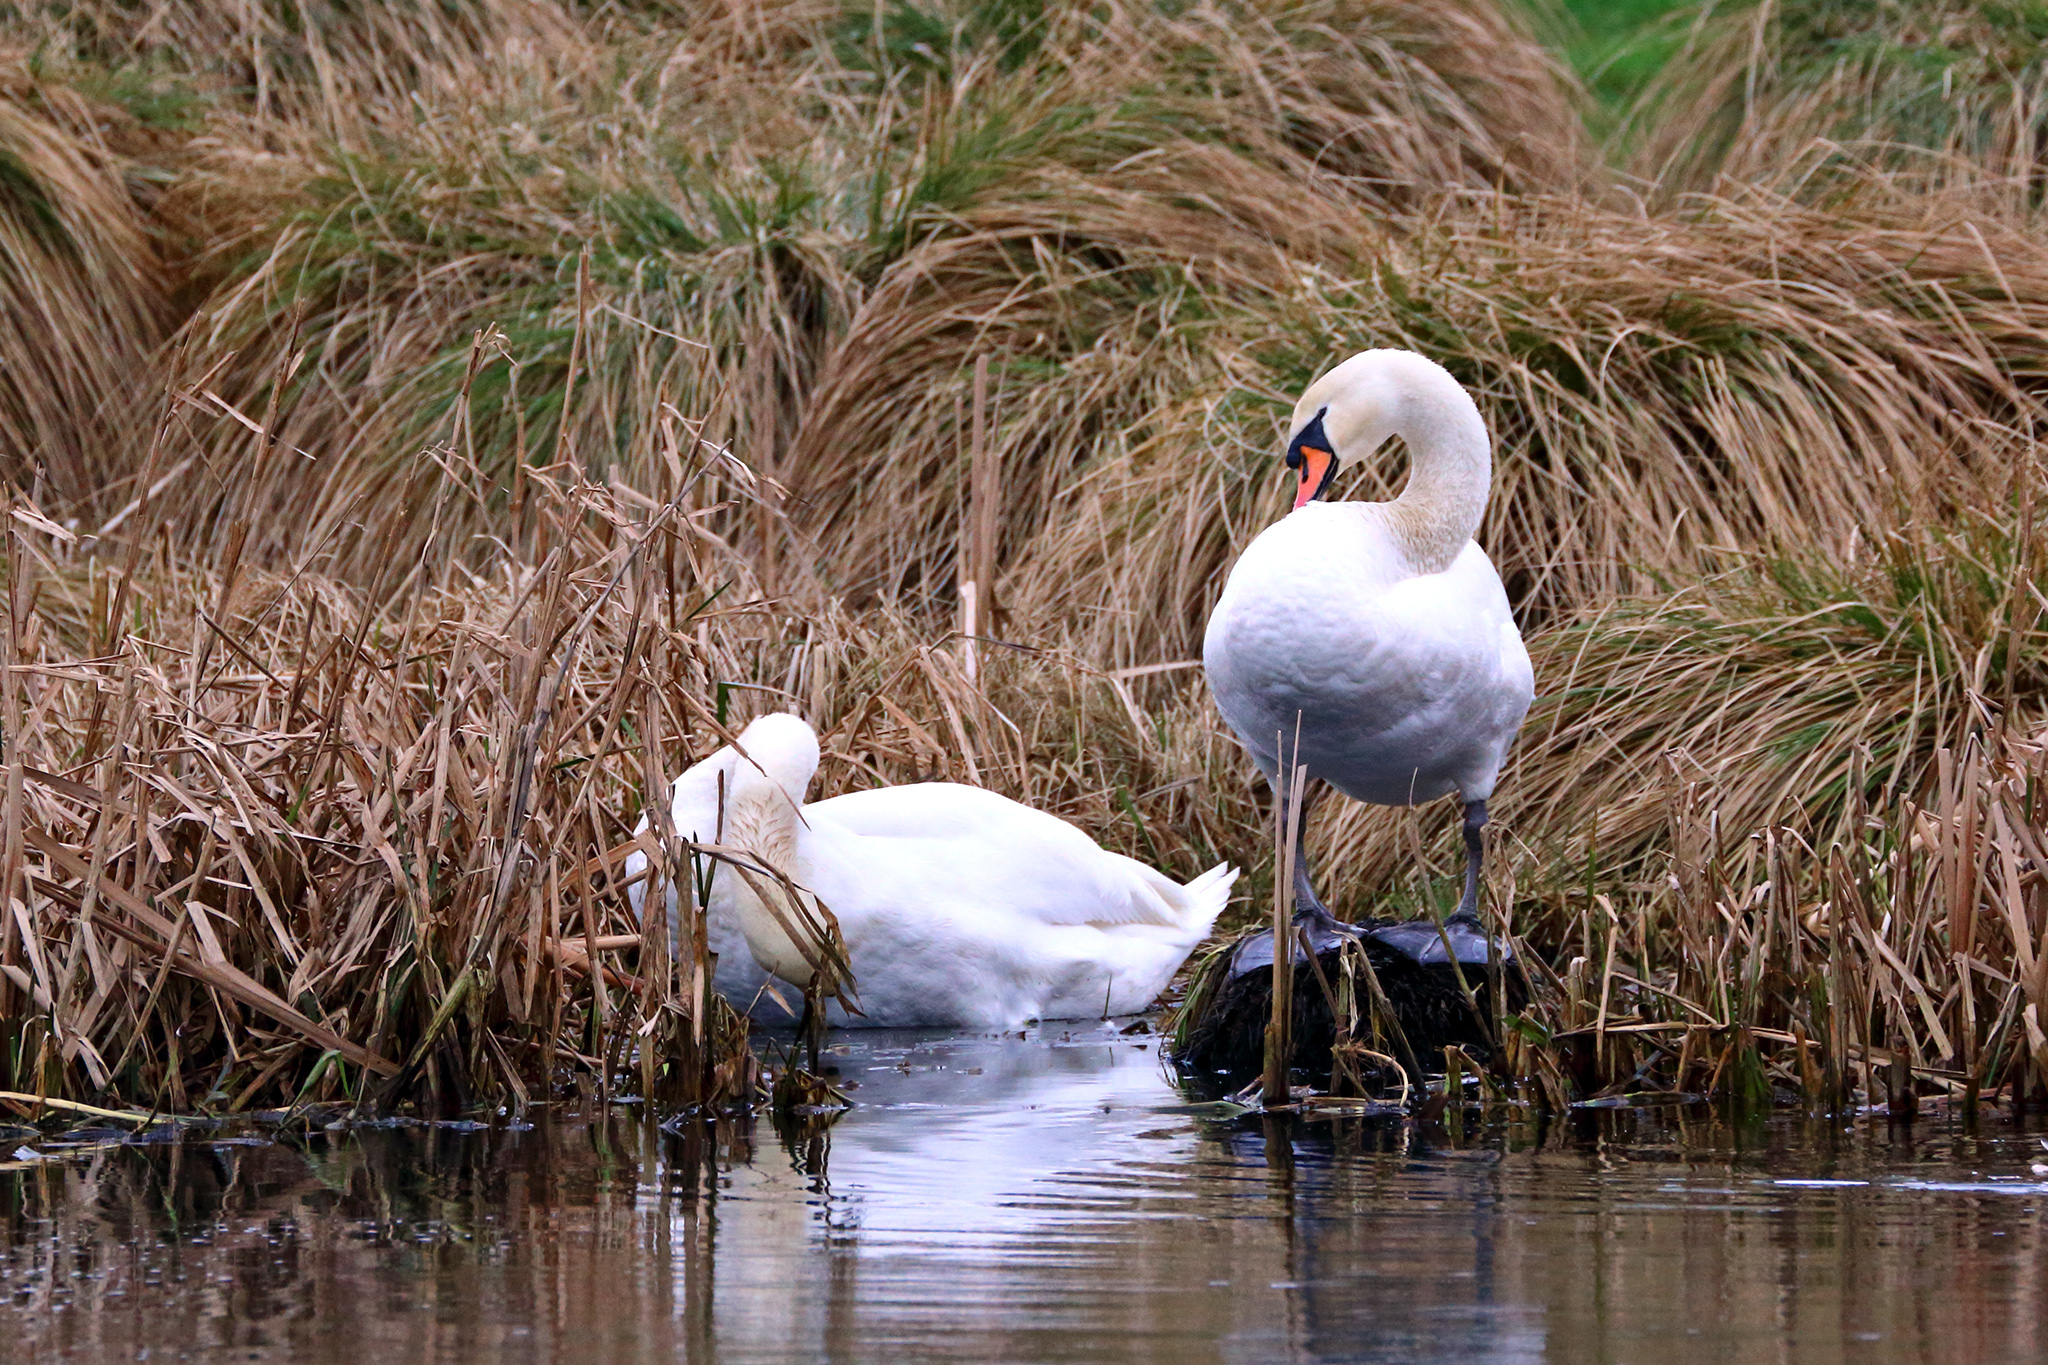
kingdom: Animalia
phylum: Chordata
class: Aves
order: Anseriformes
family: Anatidae
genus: Cygnus
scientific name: Cygnus olor
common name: Mute swan
